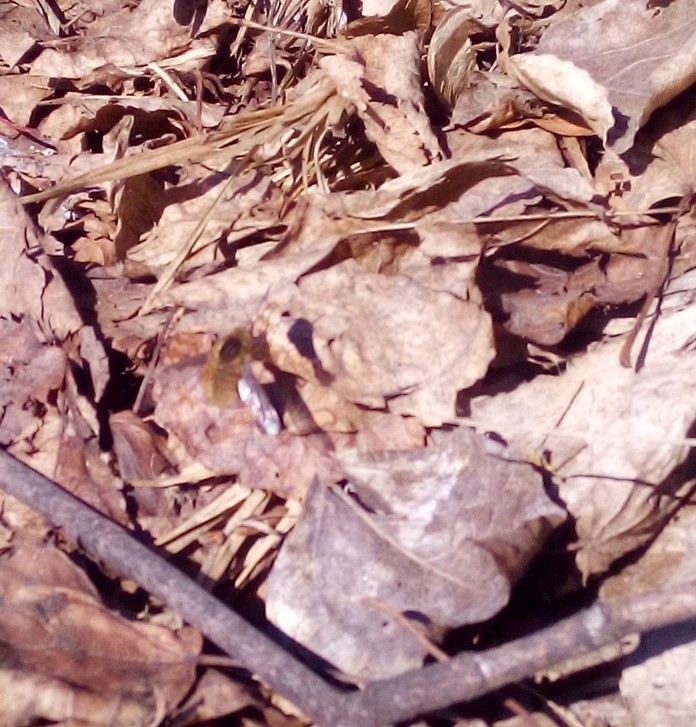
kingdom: Animalia
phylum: Arthropoda
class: Insecta
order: Diptera
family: Bombyliidae
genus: Bombylius
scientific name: Bombylius major
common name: Bee fly
